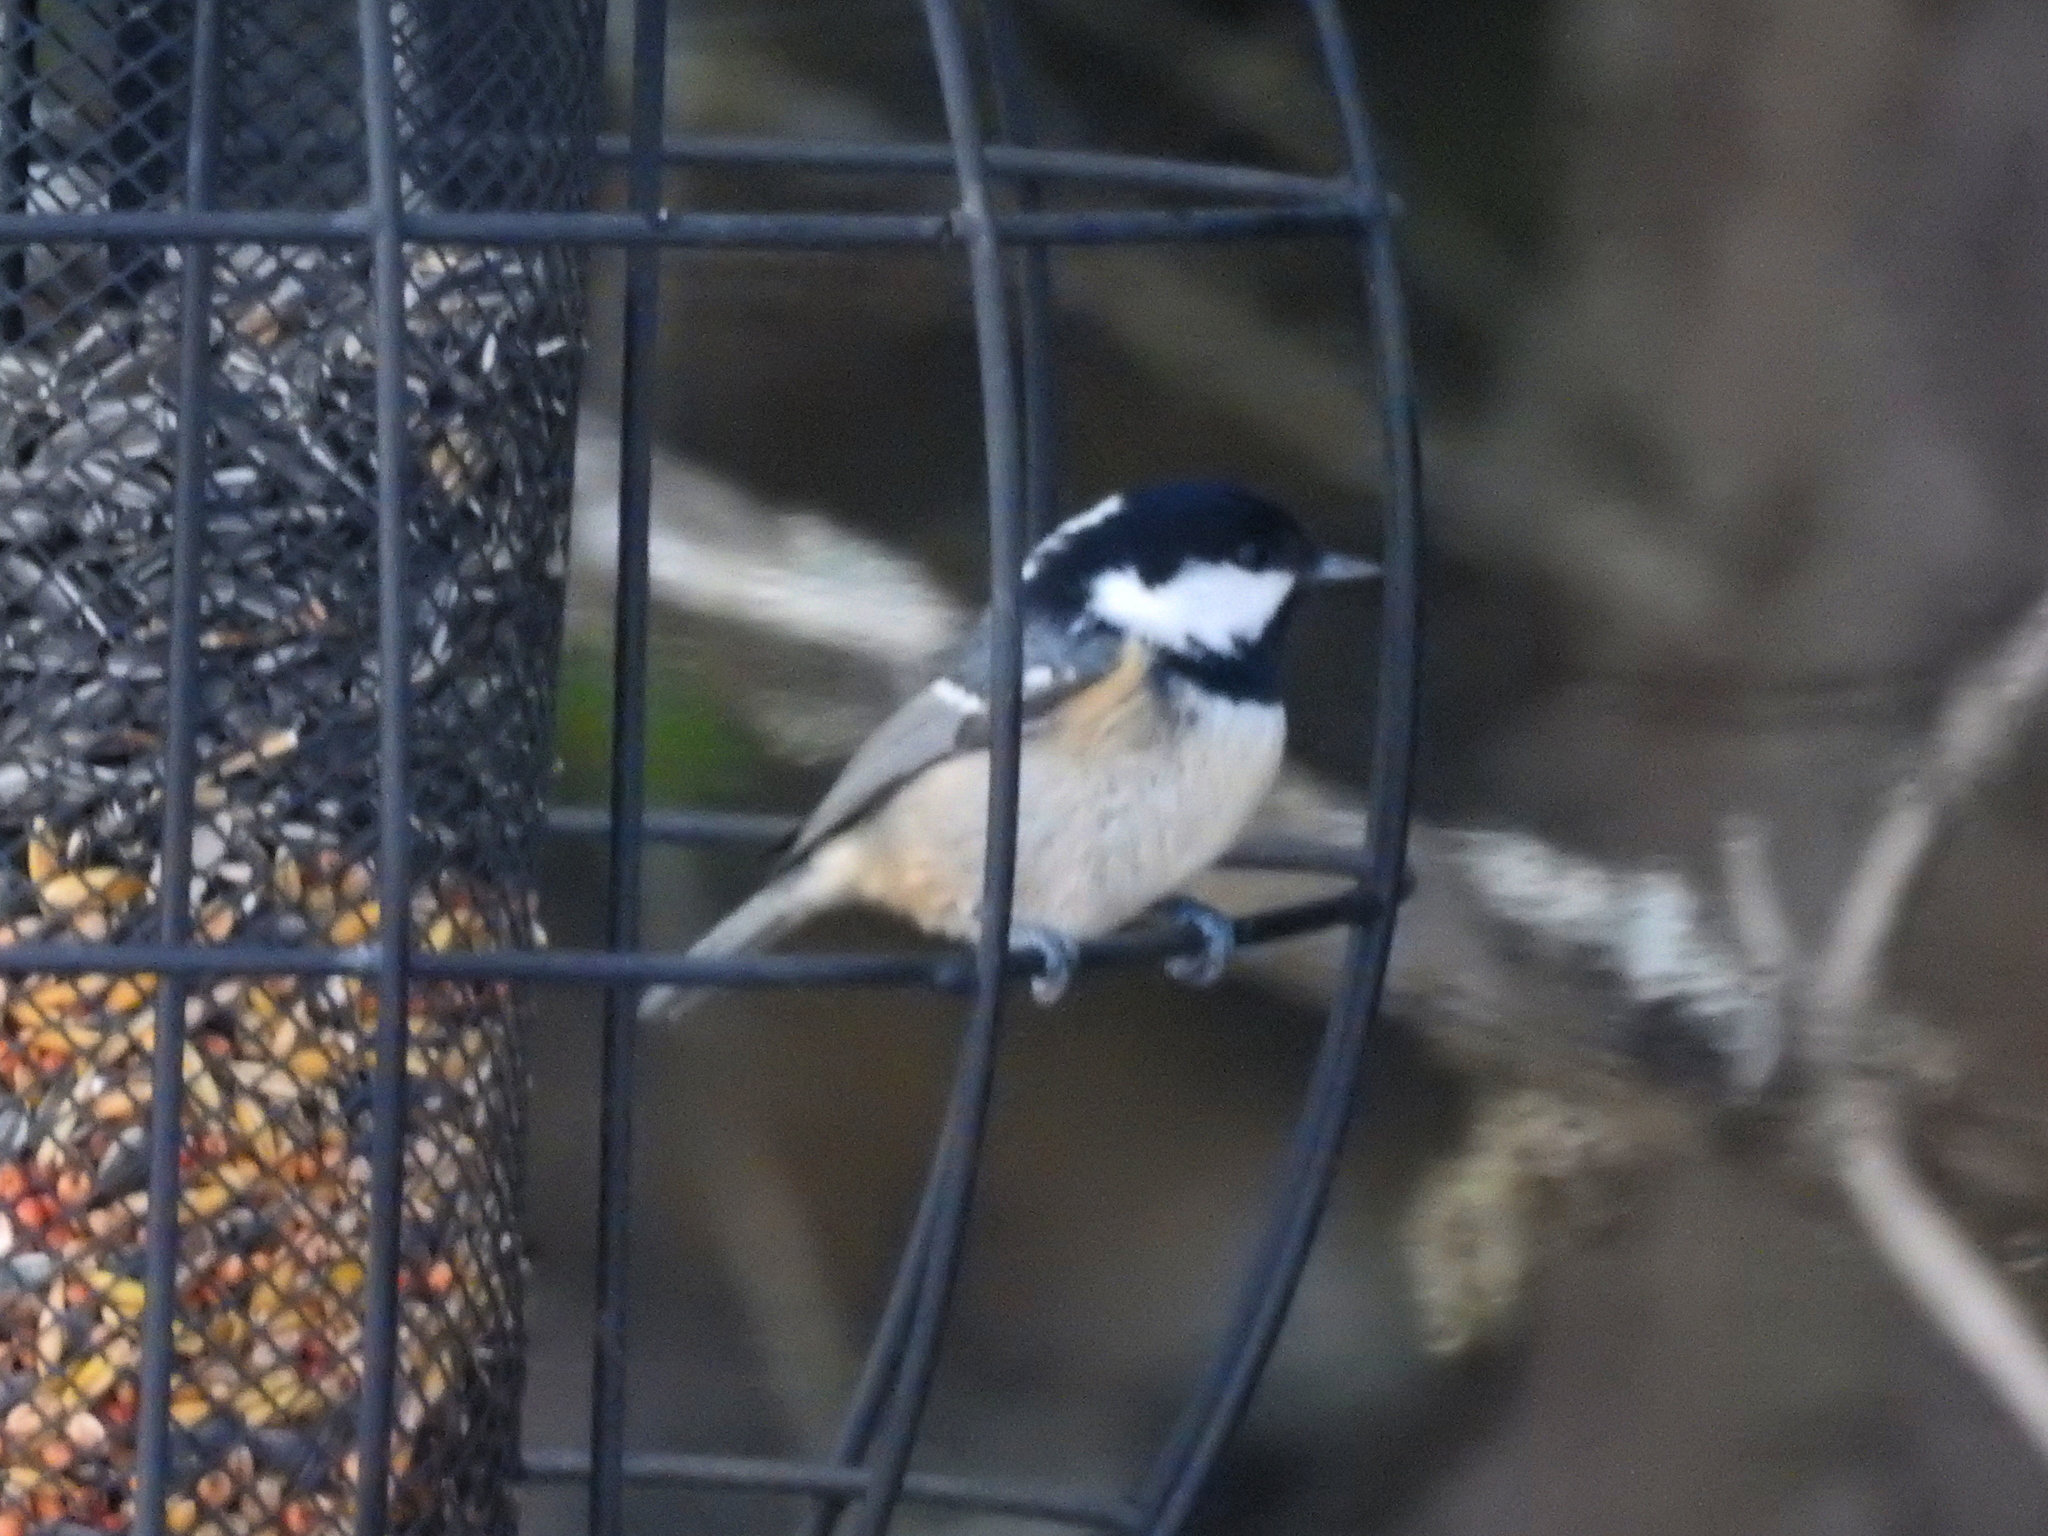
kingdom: Animalia
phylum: Chordata
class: Aves
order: Passeriformes
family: Paridae
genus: Periparus
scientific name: Periparus ater
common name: Coal tit
